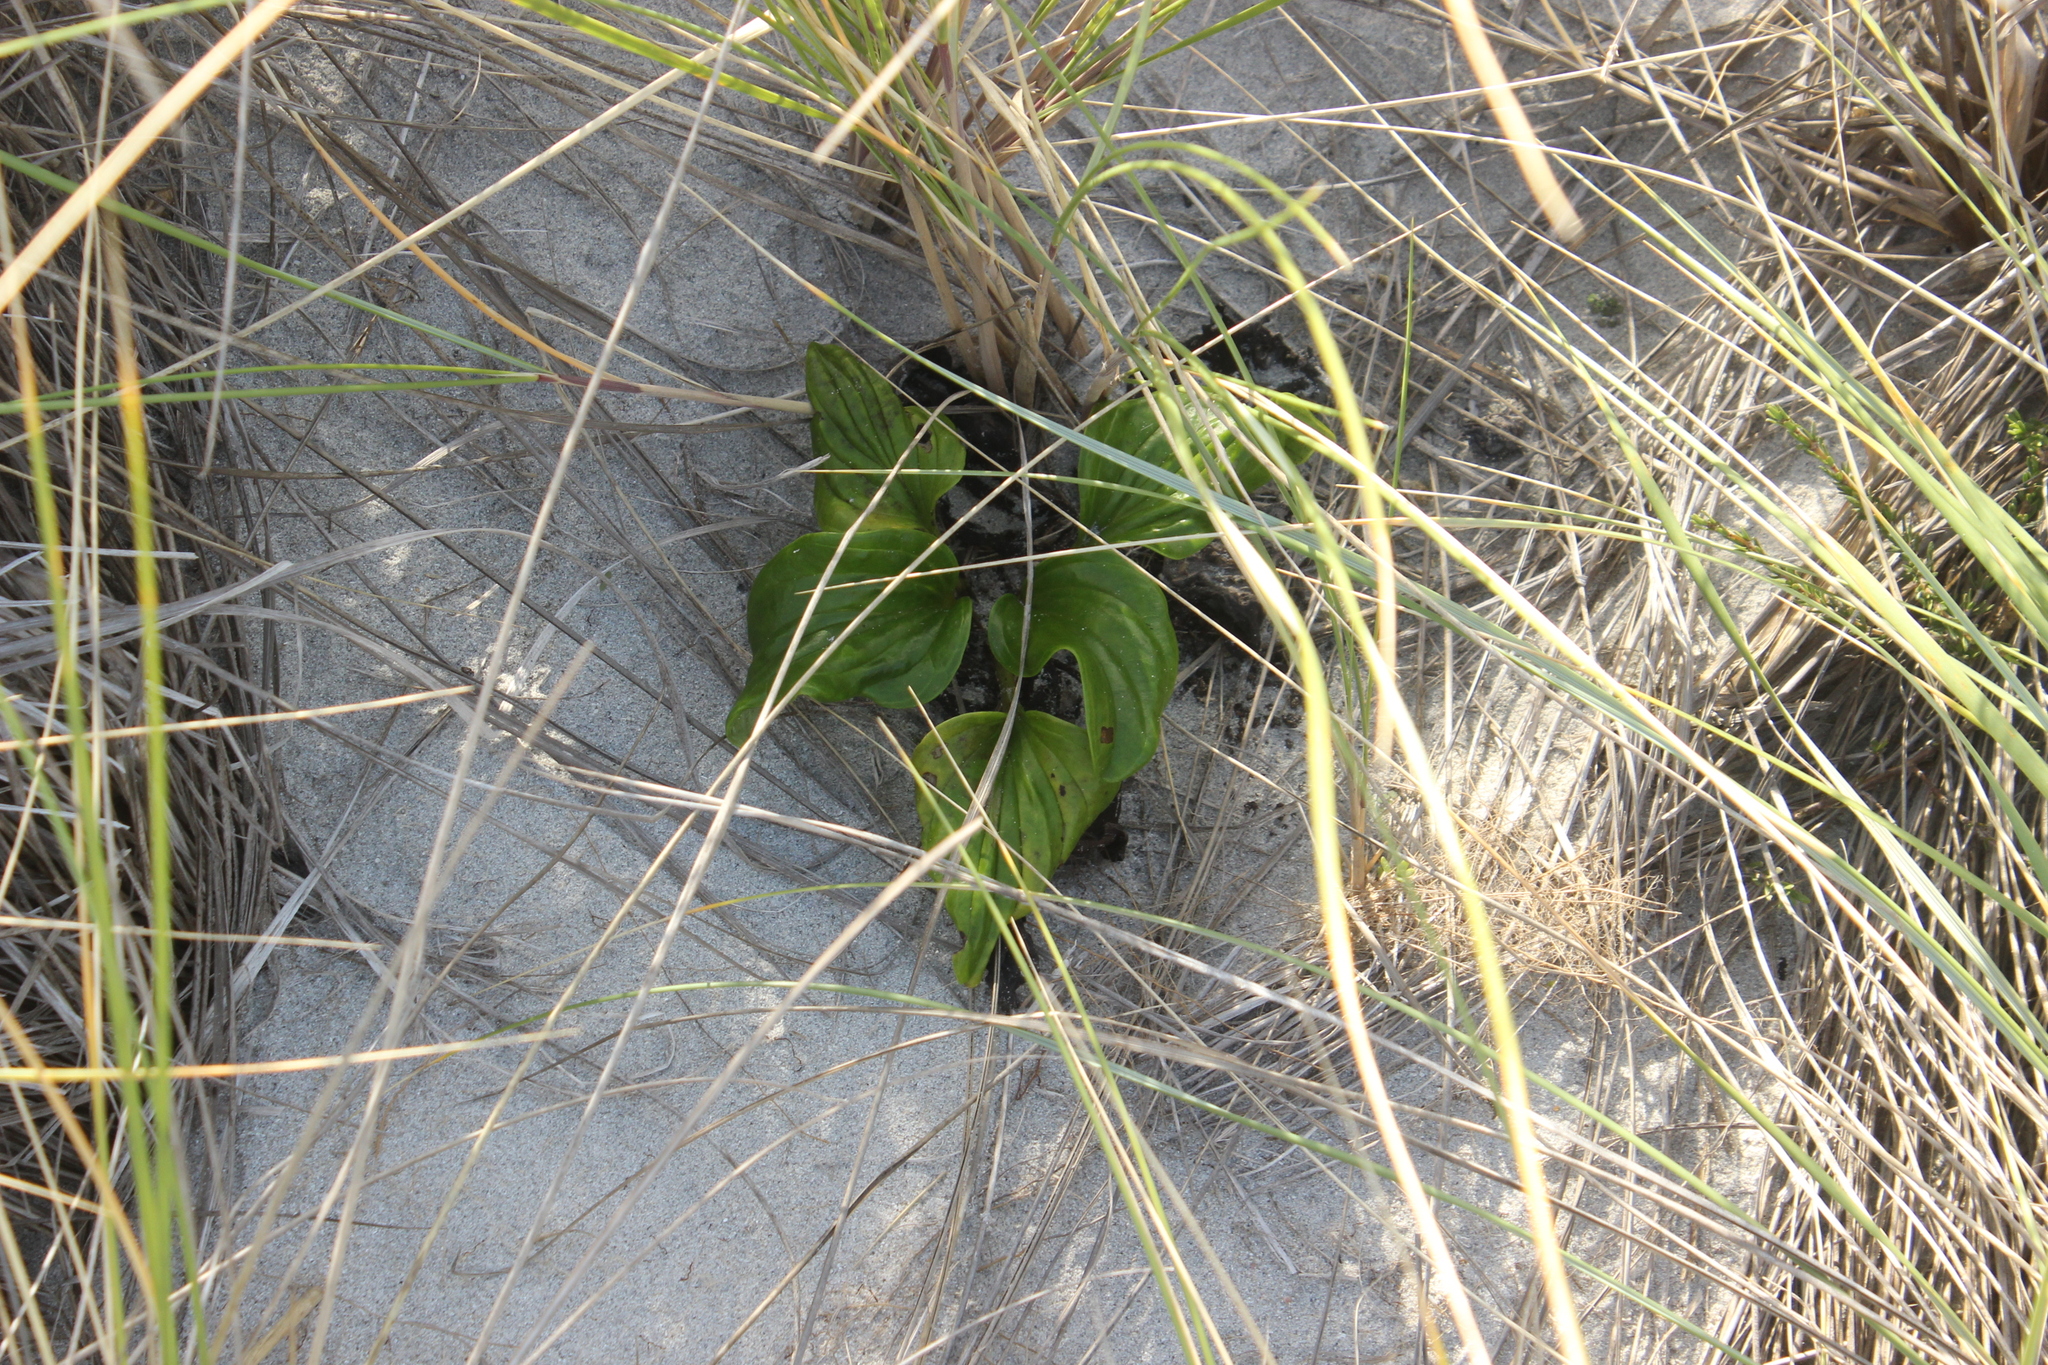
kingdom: Plantae
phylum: Tracheophyta
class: Magnoliopsida
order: Boraginales
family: Boraginaceae
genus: Myosotidium
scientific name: Myosotidium hortensia
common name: Giant forget-me-not
